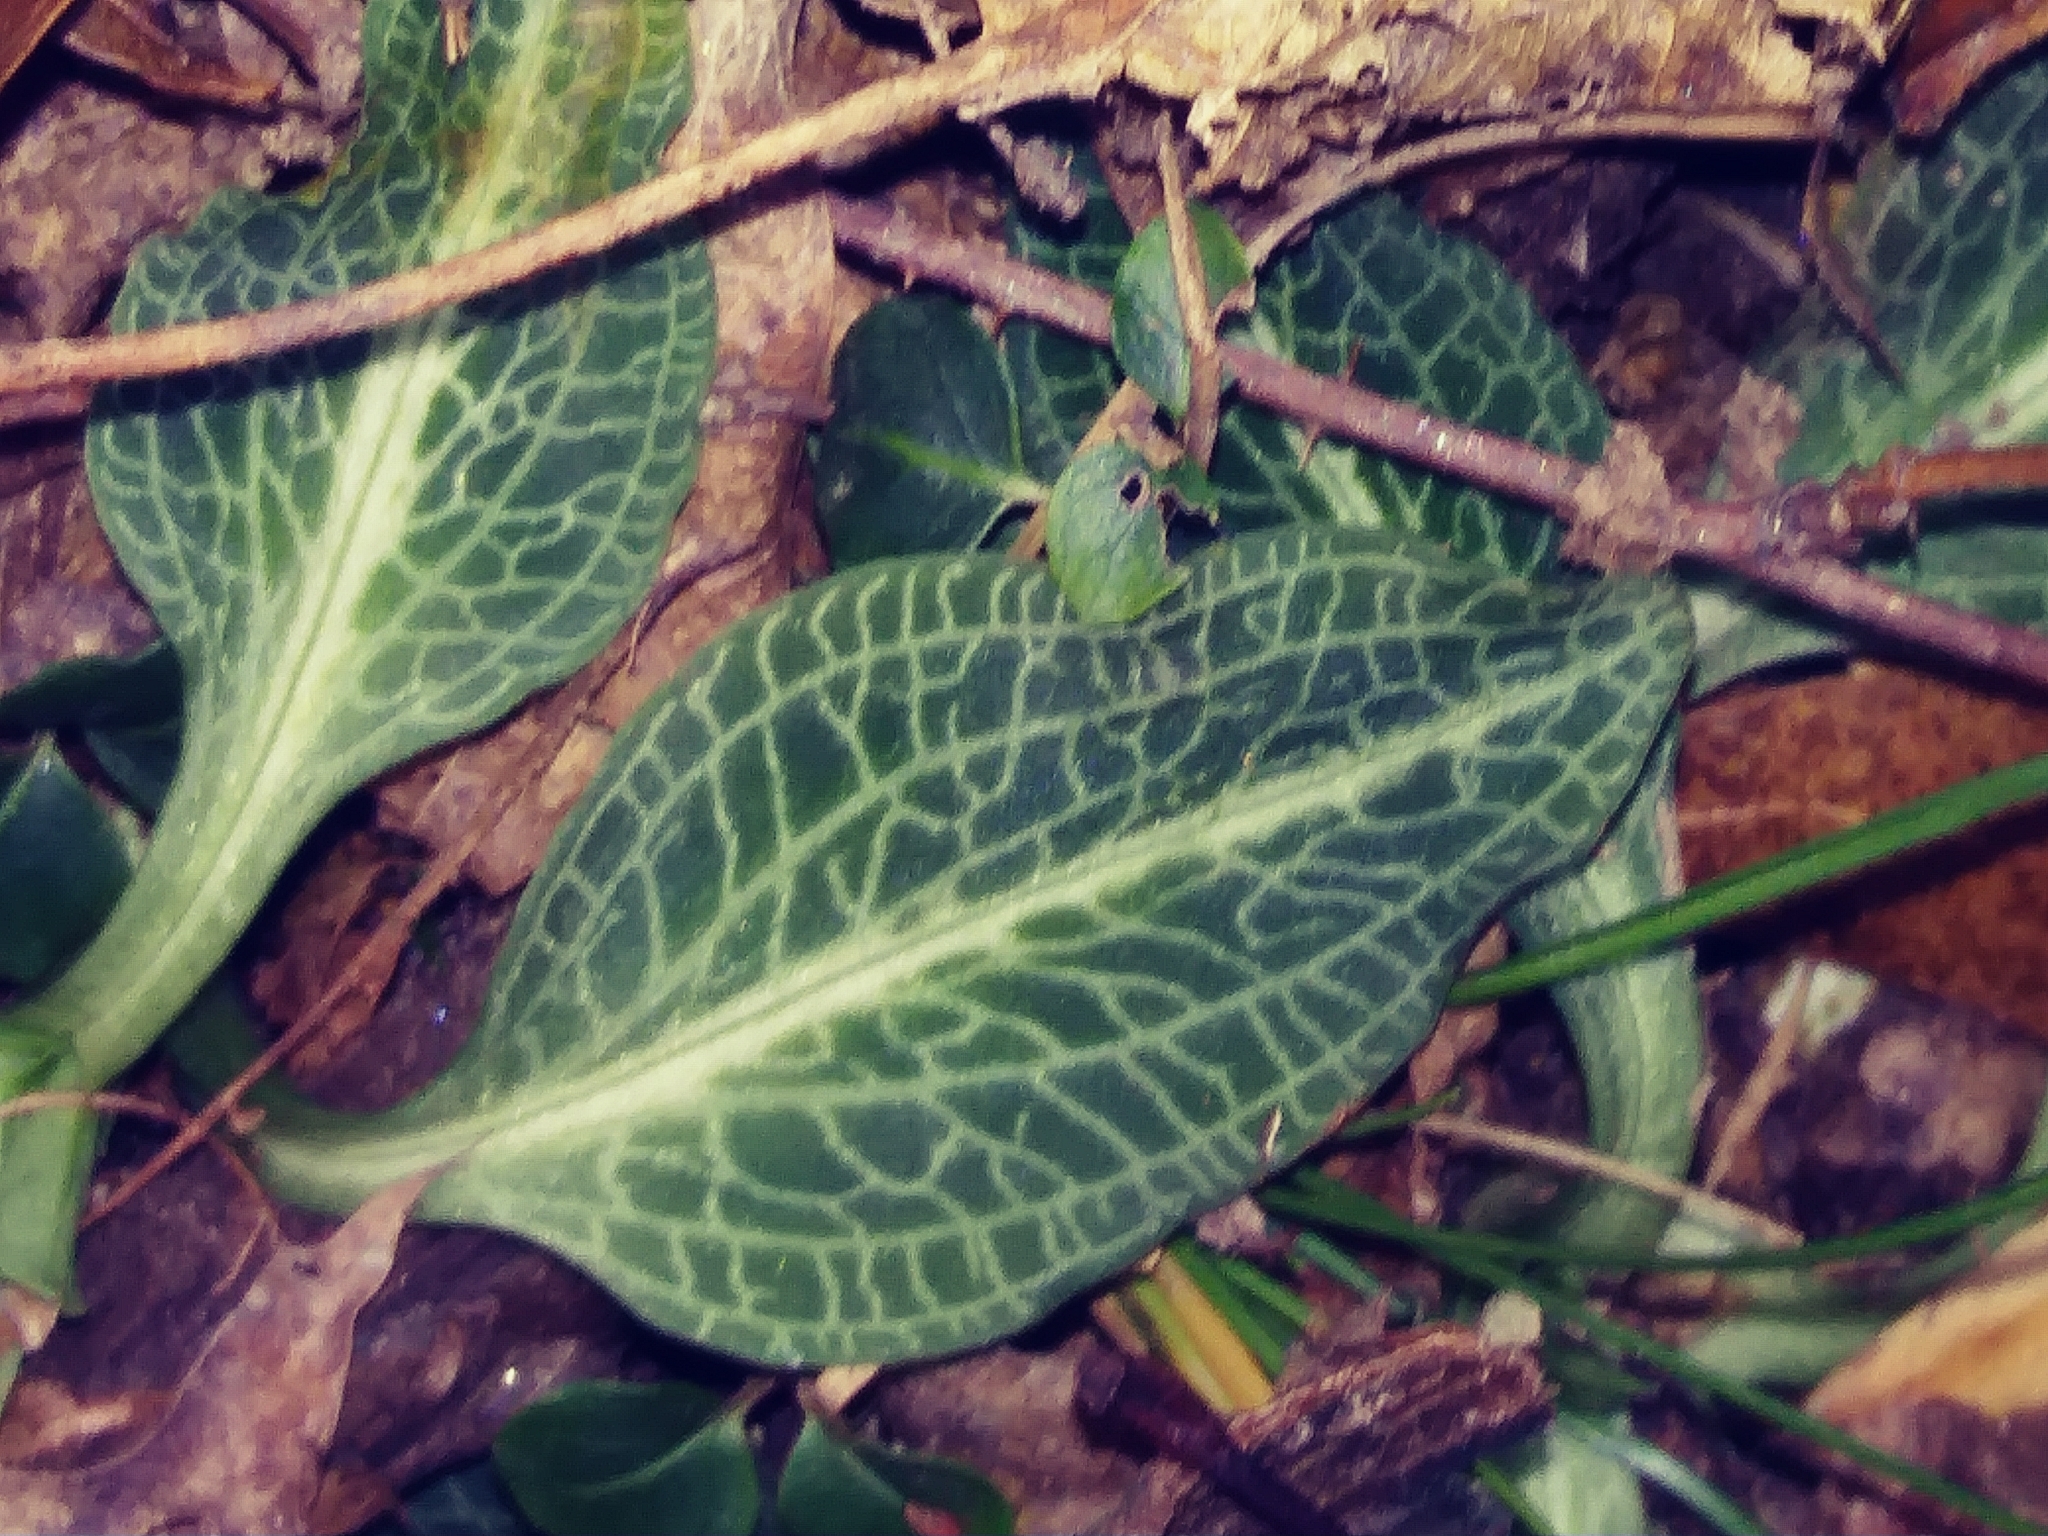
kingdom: Plantae
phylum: Tracheophyta
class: Liliopsida
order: Asparagales
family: Orchidaceae
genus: Goodyera
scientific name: Goodyera pubescens
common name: Downy rattlesnake-plantain
